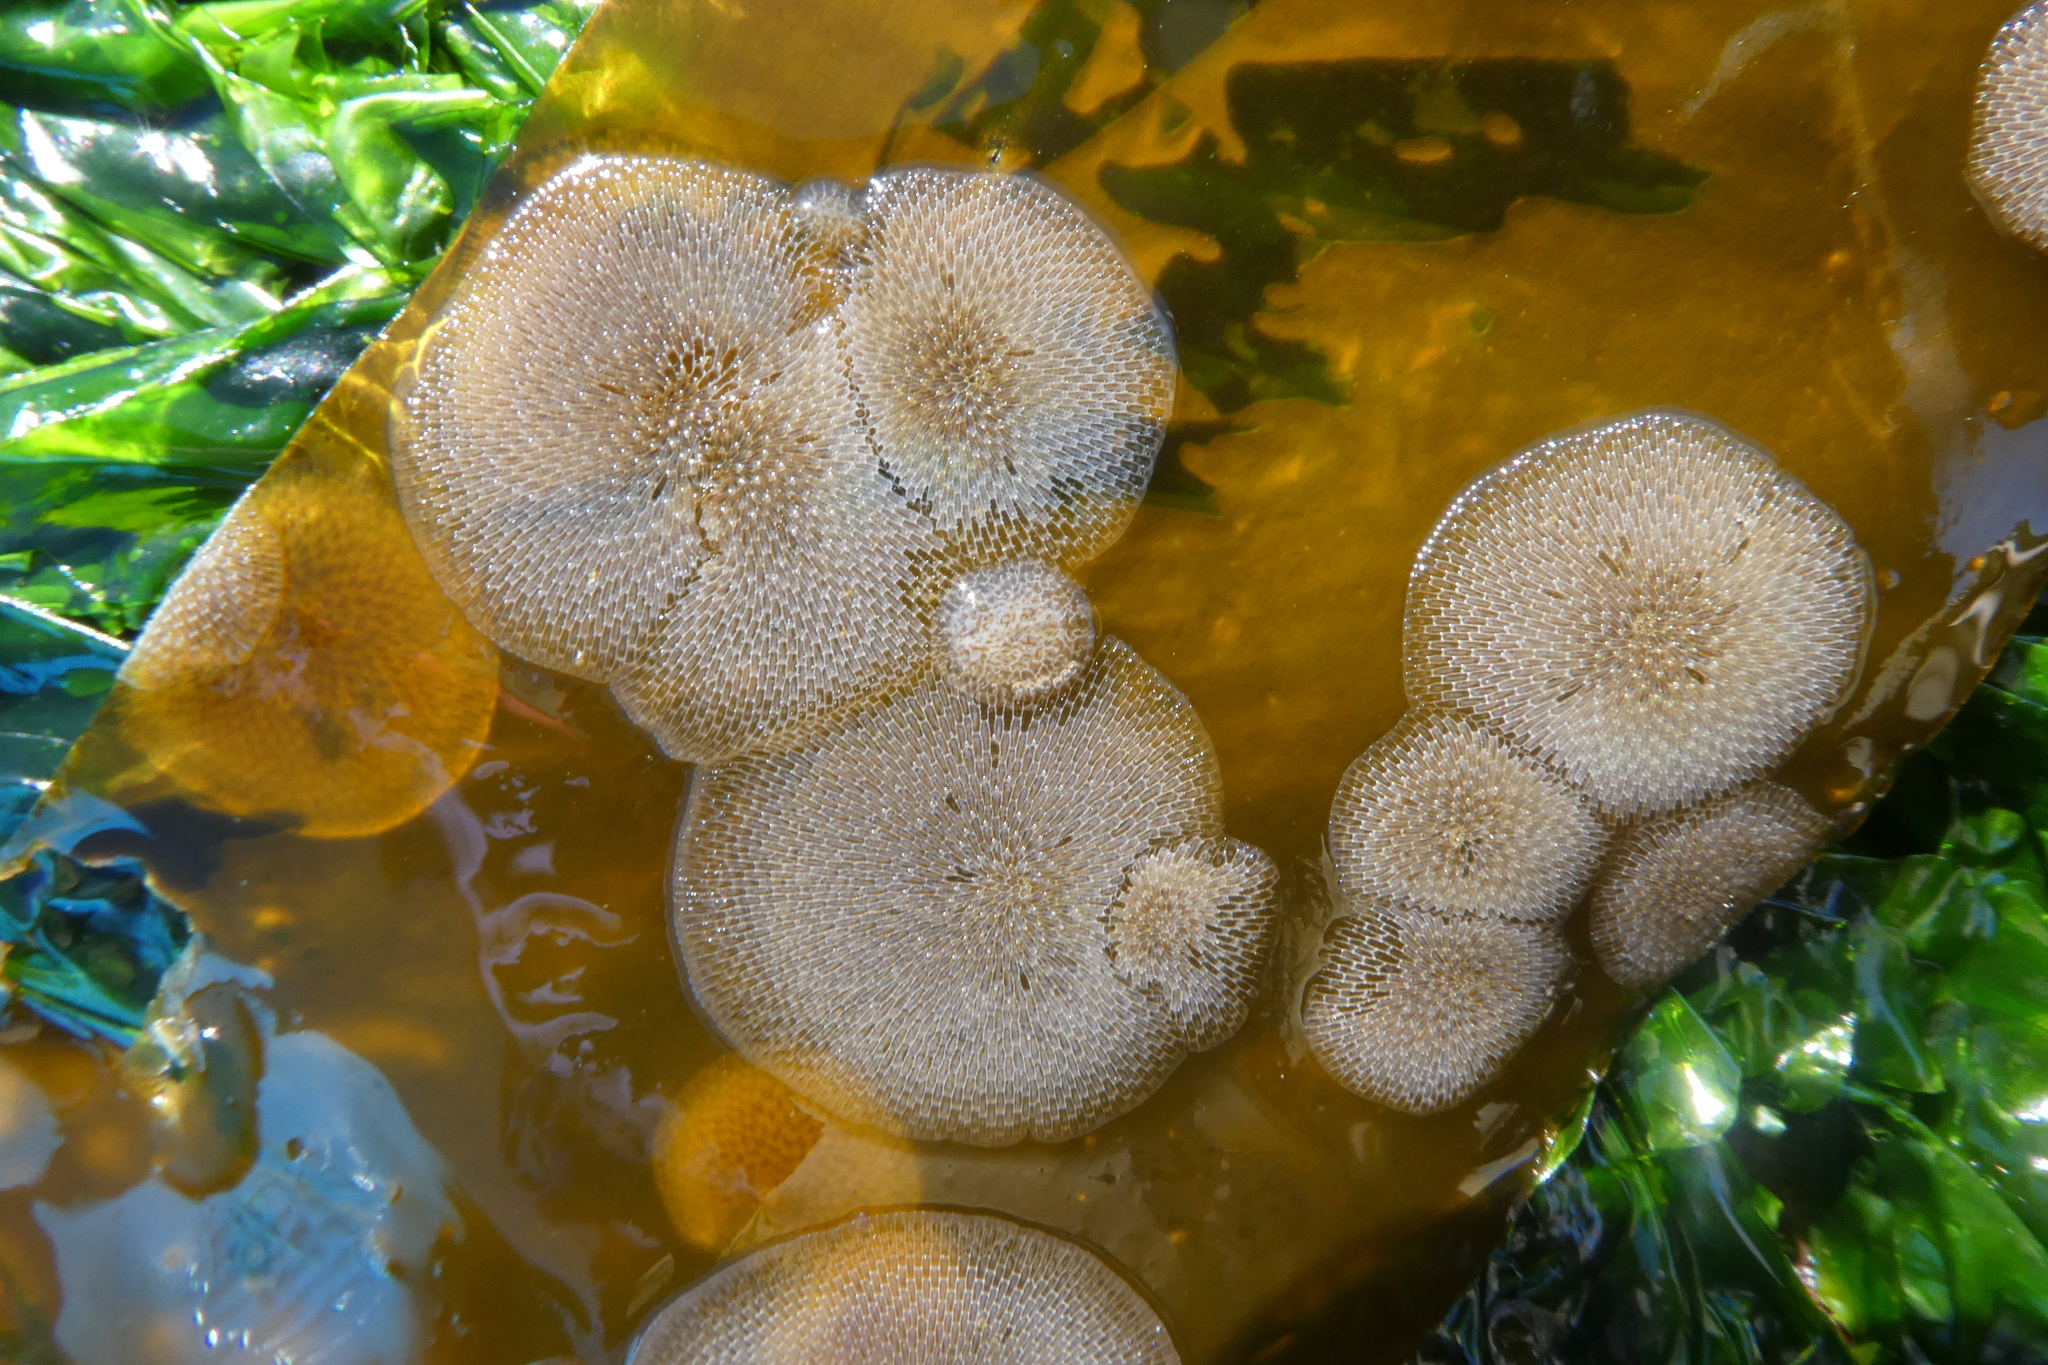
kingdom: Animalia
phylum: Bryozoa
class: Gymnolaemata
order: Cheilostomatida
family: Membraniporidae
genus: Membranipora
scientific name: Membranipora membranacea
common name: Sea mat
